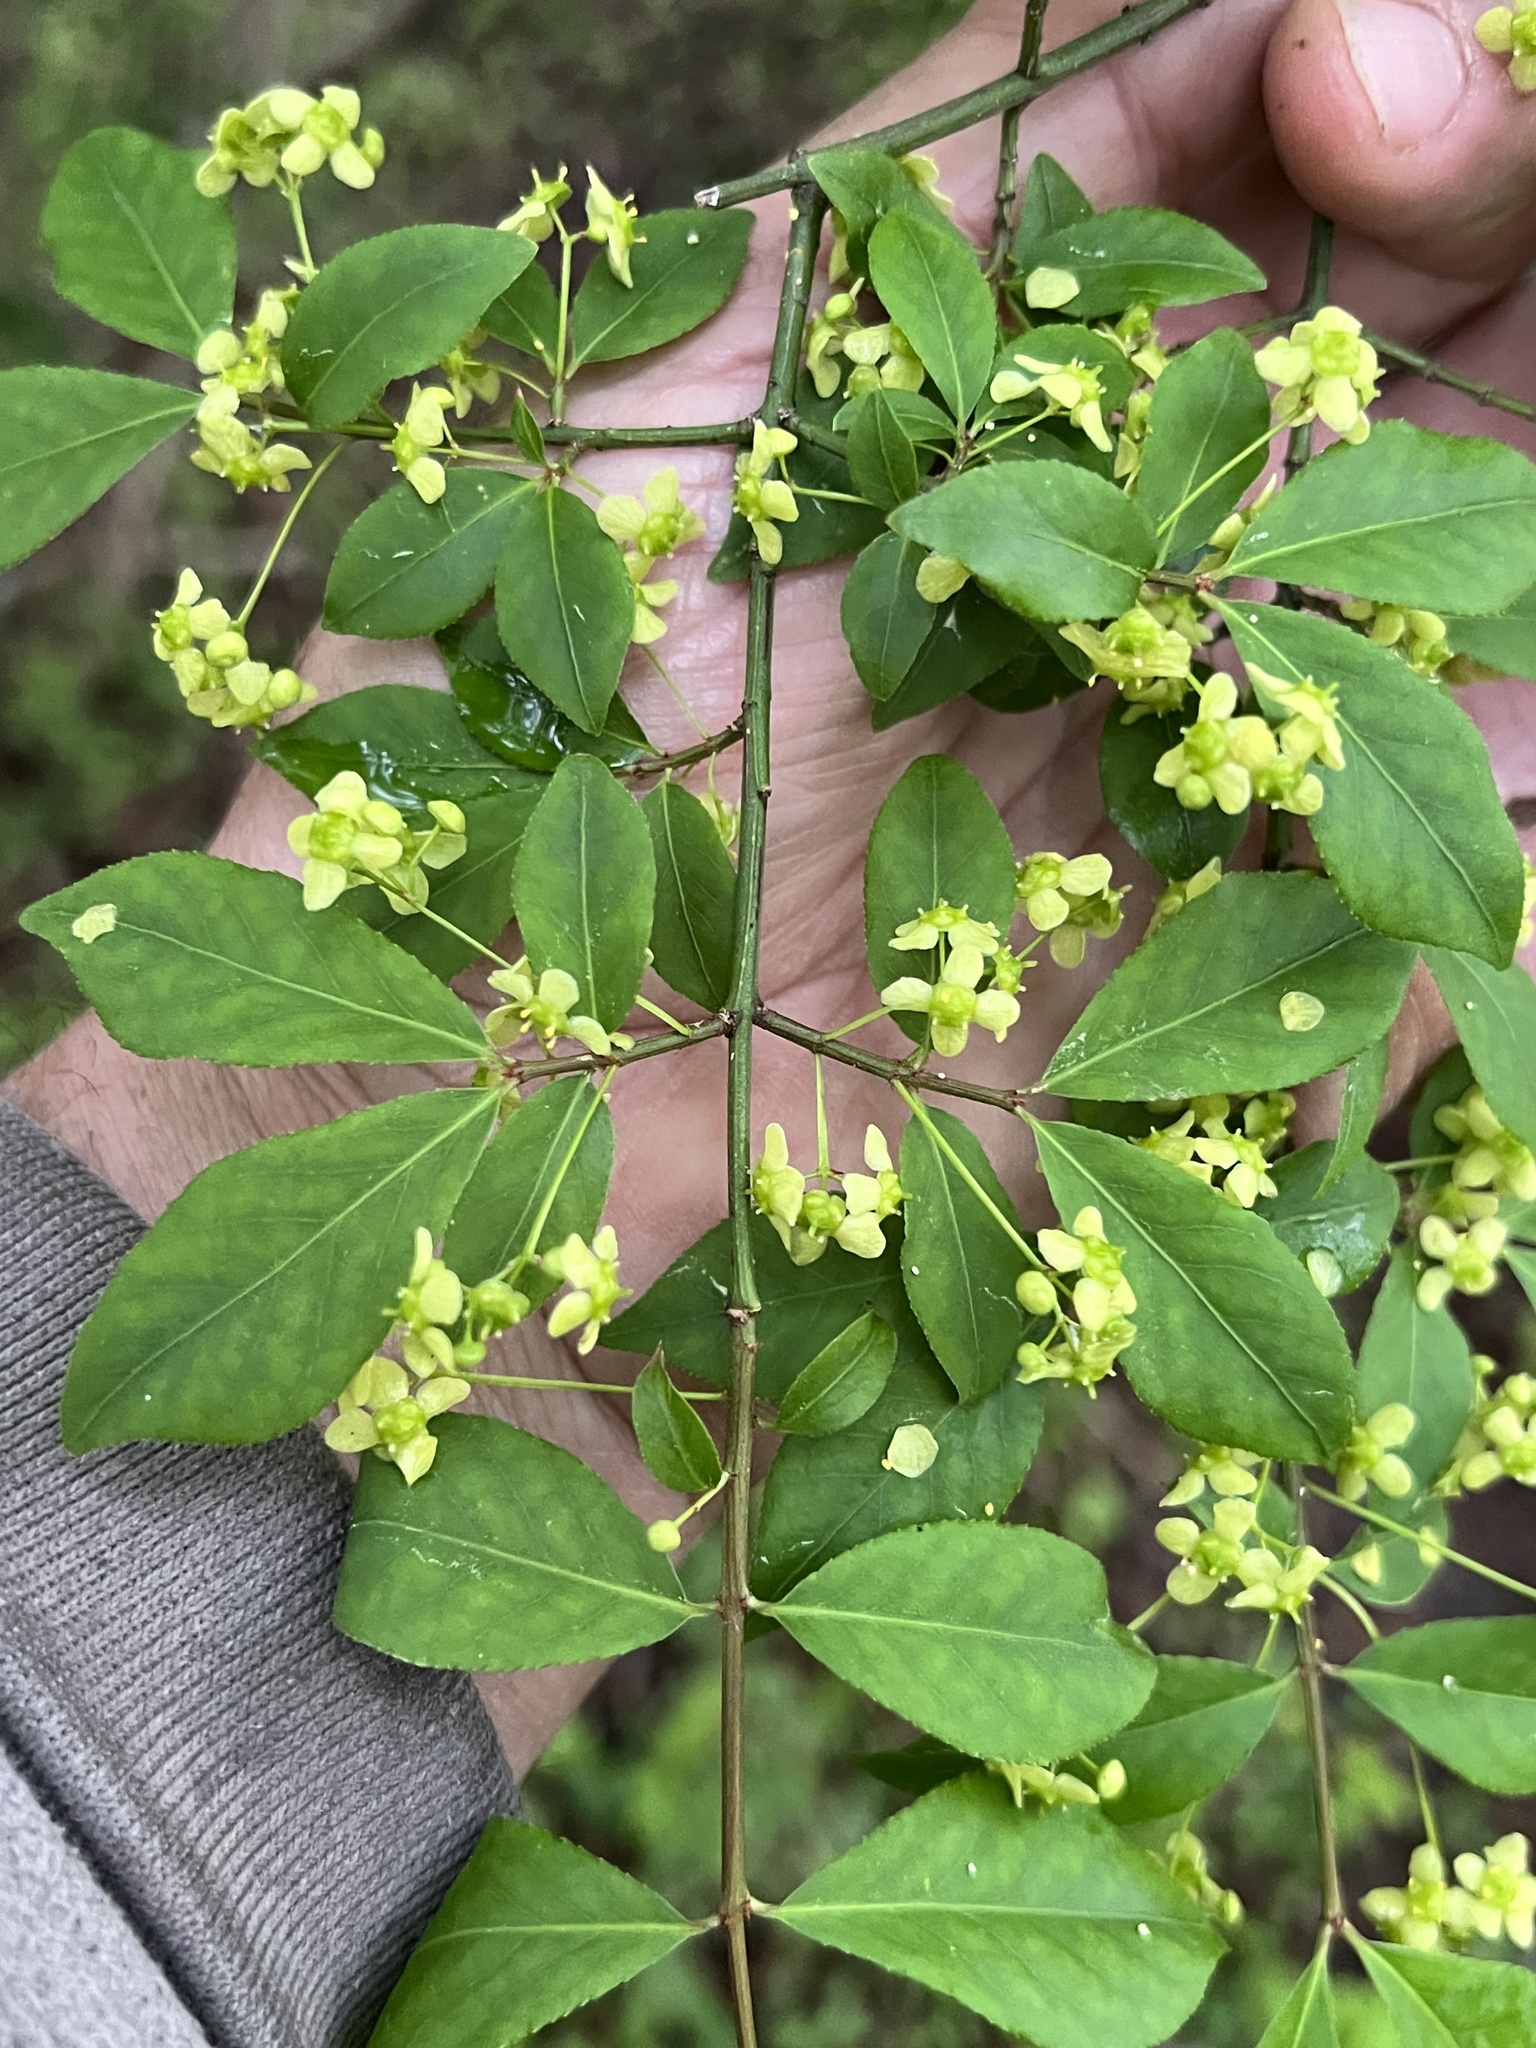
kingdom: Plantae
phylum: Tracheophyta
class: Magnoliopsida
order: Celastrales
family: Celastraceae
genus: Euonymus
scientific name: Euonymus alatus
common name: Winged euonymus
